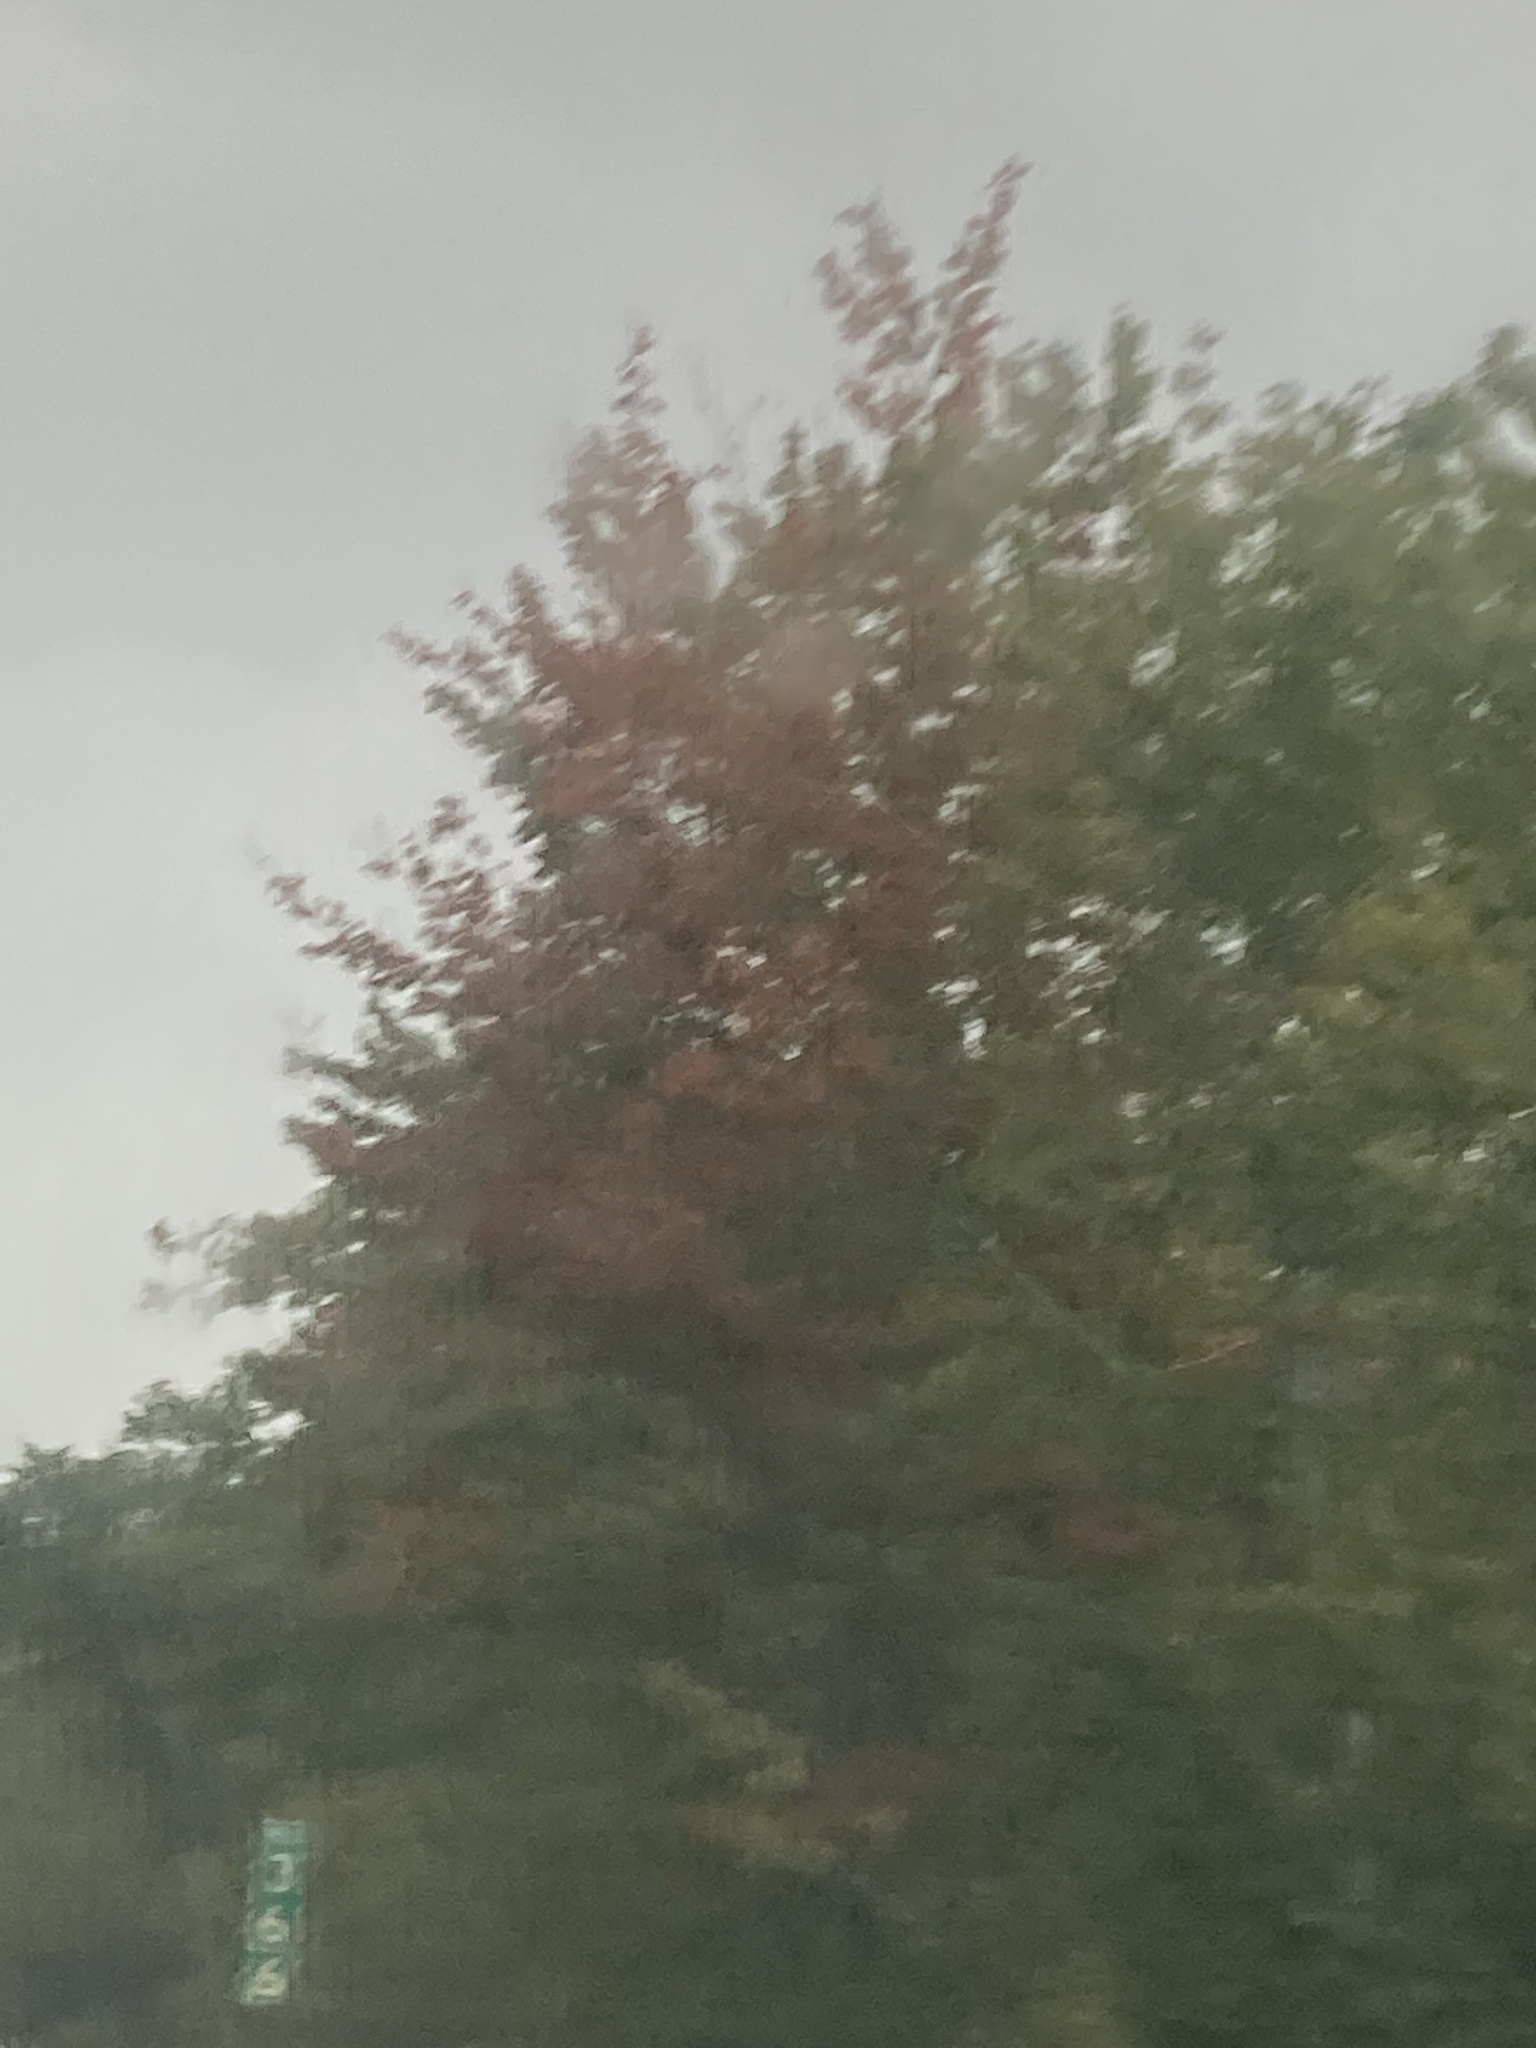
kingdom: Plantae
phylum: Tracheophyta
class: Magnoliopsida
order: Sapindales
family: Sapindaceae
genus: Acer
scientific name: Acer rubrum
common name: Red maple
